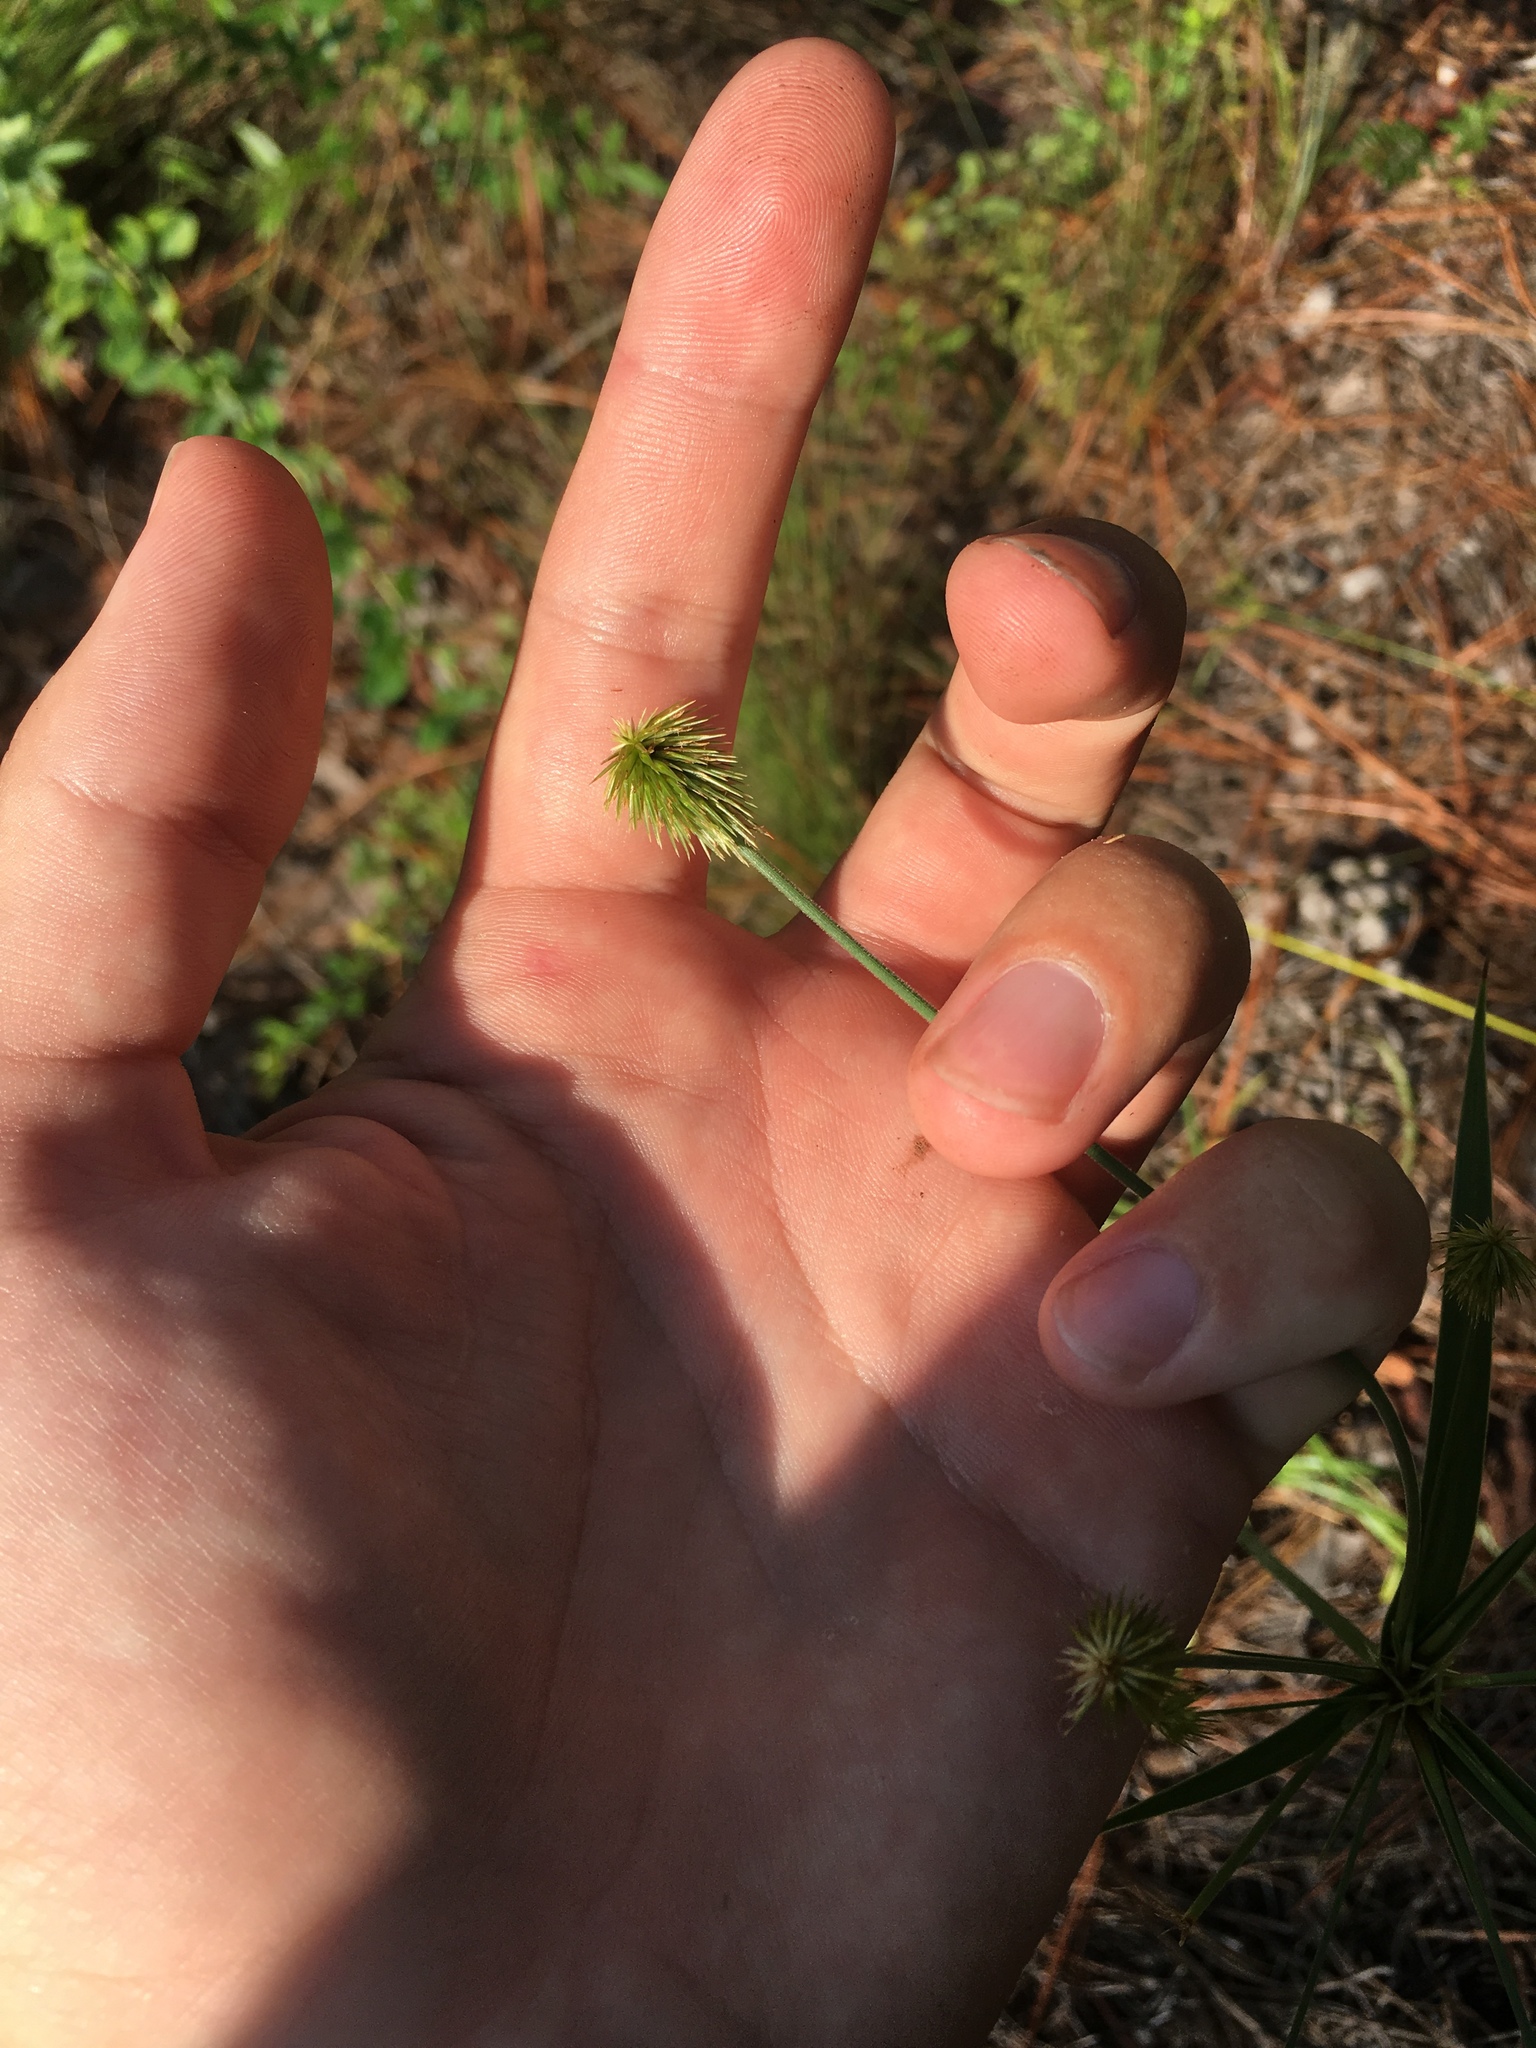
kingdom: Plantae
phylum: Tracheophyta
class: Liliopsida
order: Poales
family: Cyperaceae
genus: Cyperus
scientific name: Cyperus plukenetii
